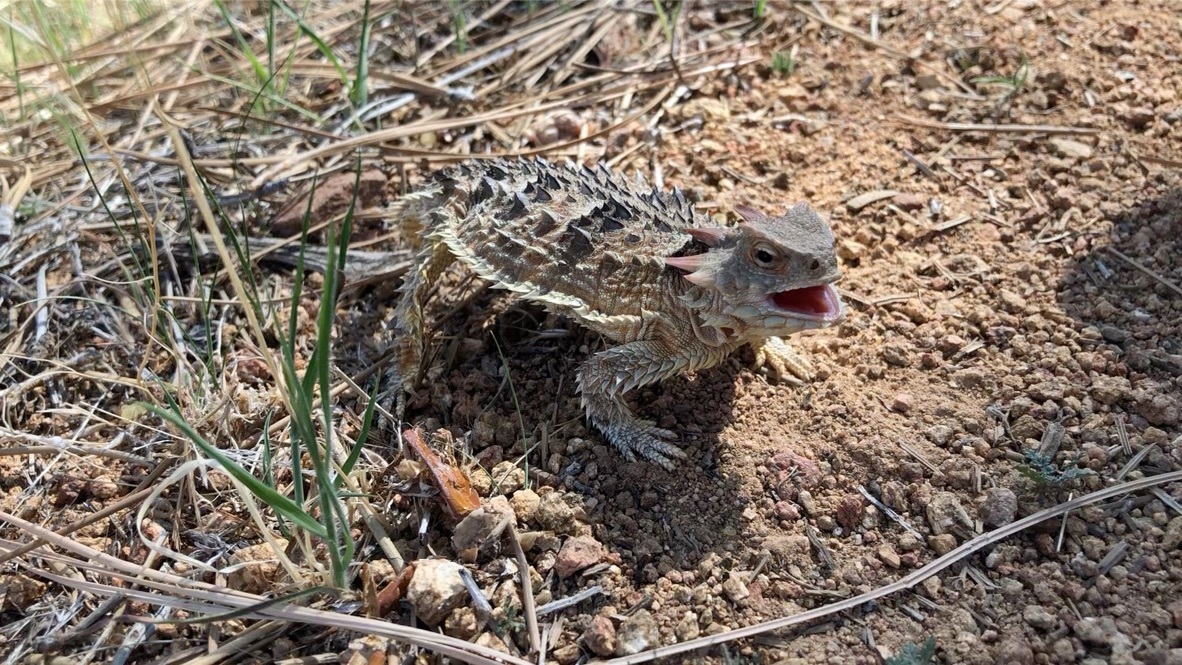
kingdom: Animalia
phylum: Chordata
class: Squamata
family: Phrynosomatidae
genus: Phrynosoma
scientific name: Phrynosoma blainvillii
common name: San diego horned lizard
